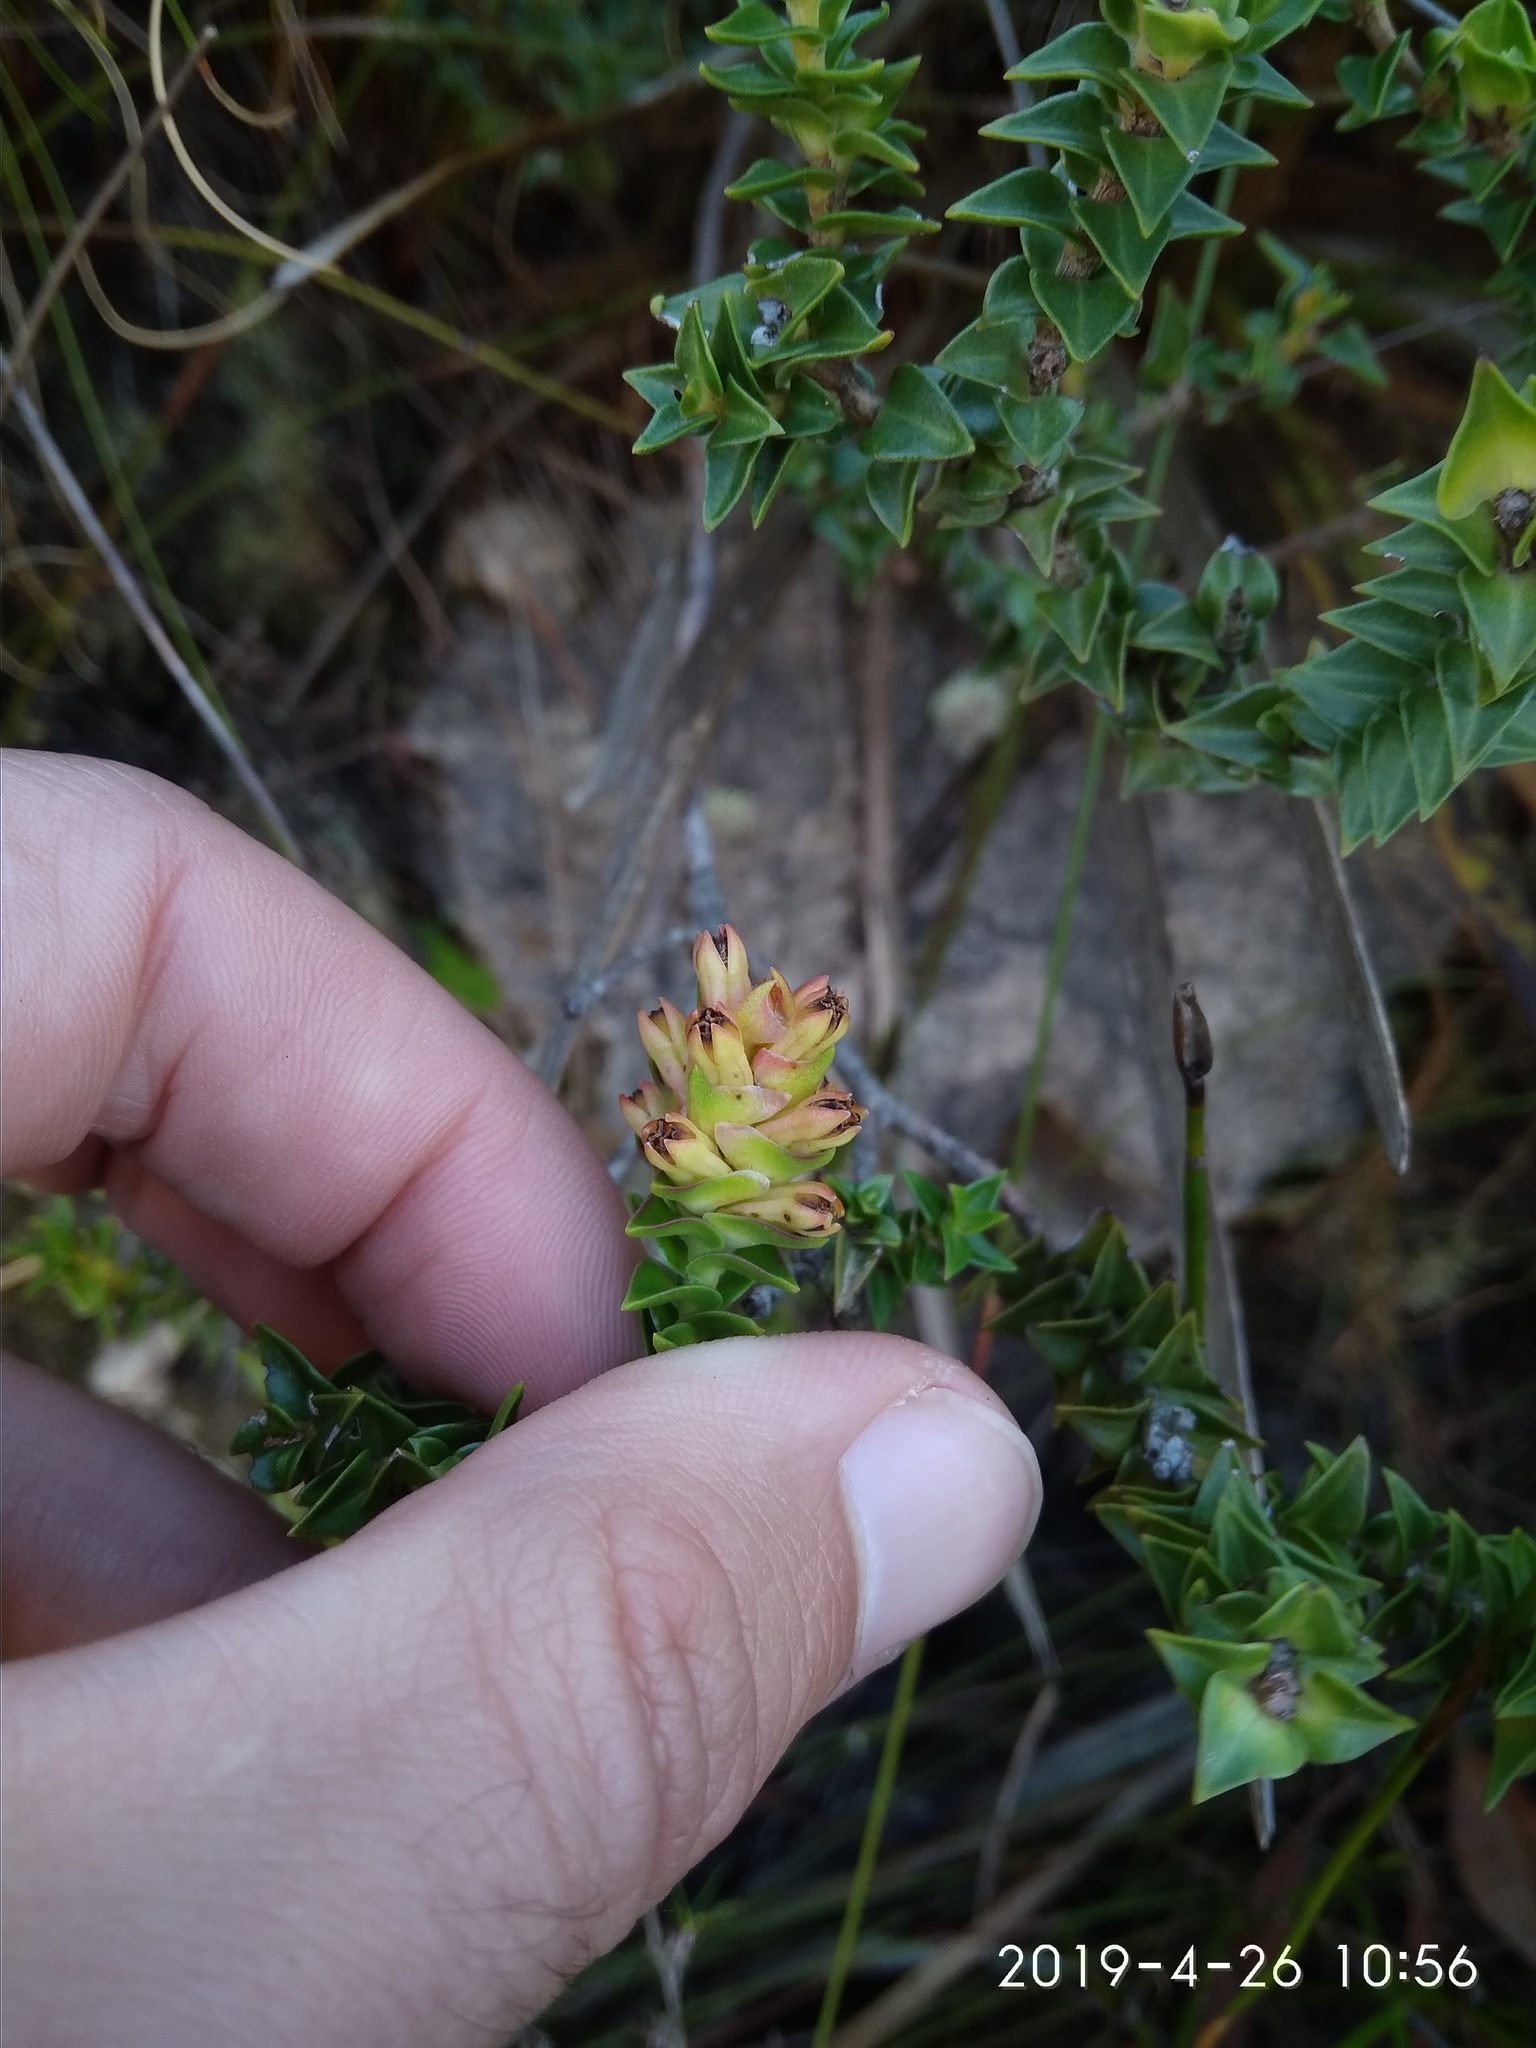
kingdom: Plantae
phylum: Tracheophyta
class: Magnoliopsida
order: Myrtales
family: Penaeaceae
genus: Penaea
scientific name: Penaea mucronata
